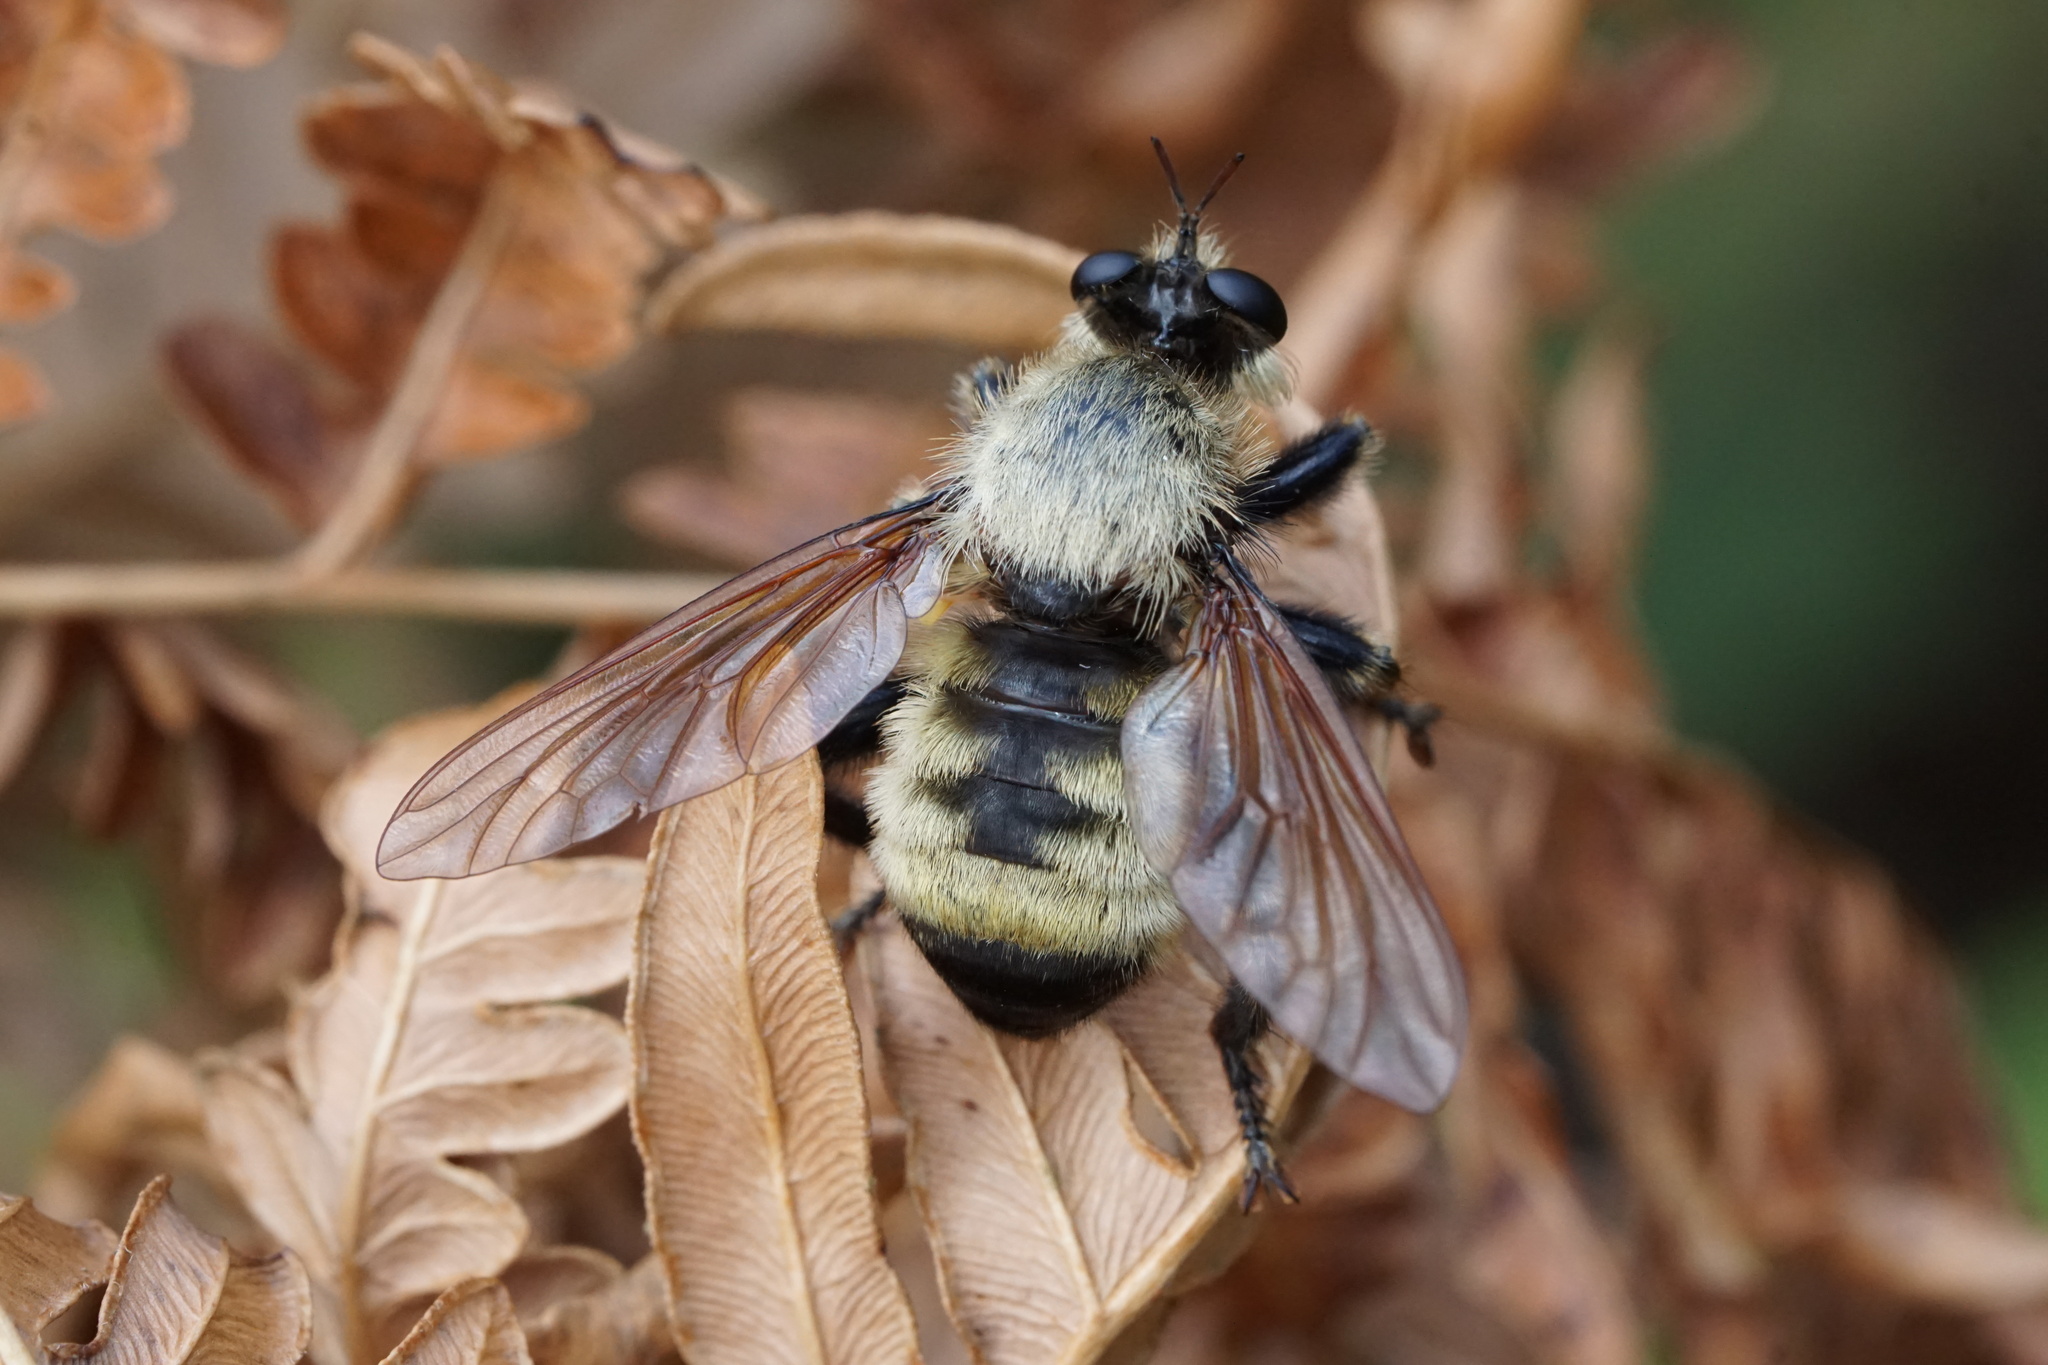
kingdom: Animalia
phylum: Arthropoda
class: Insecta
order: Diptera
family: Asilidae
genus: Laphria
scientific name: Laphria champlainii
